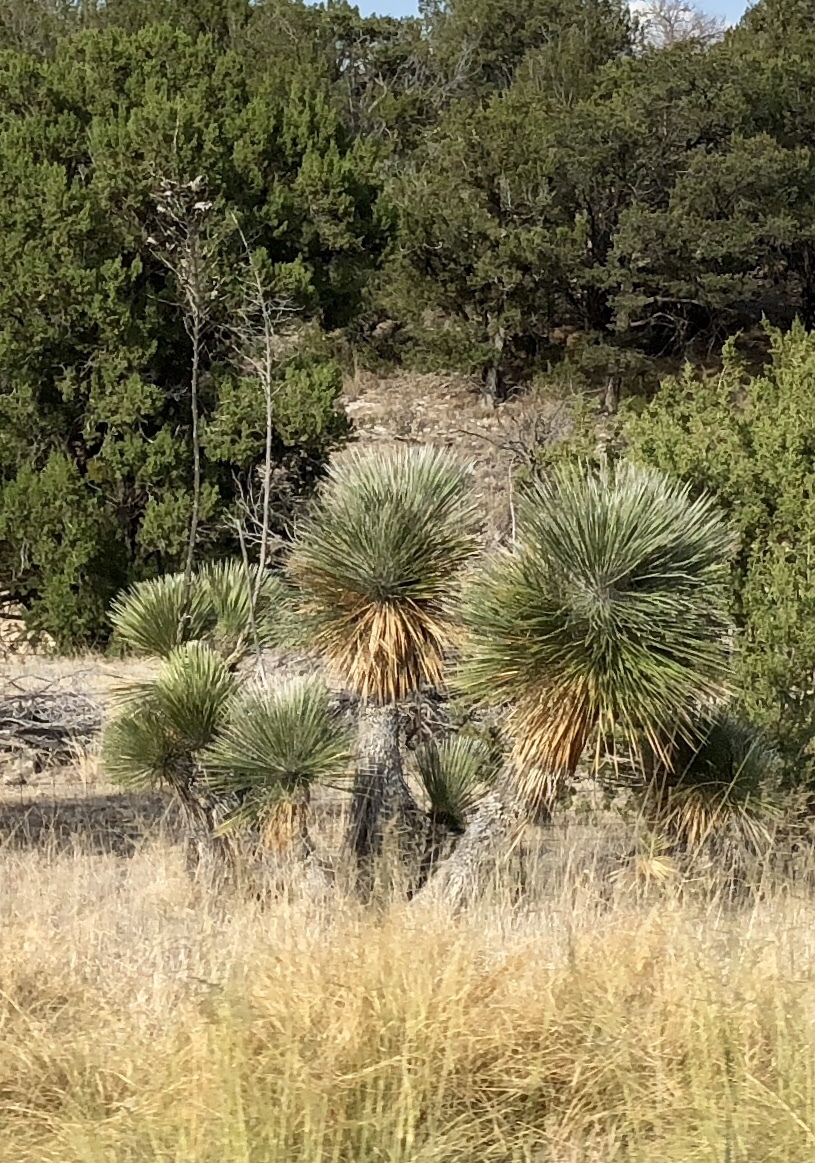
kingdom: Plantae
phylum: Tracheophyta
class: Liliopsida
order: Asparagales
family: Asparagaceae
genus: Yucca
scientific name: Yucca elata
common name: Palmella
